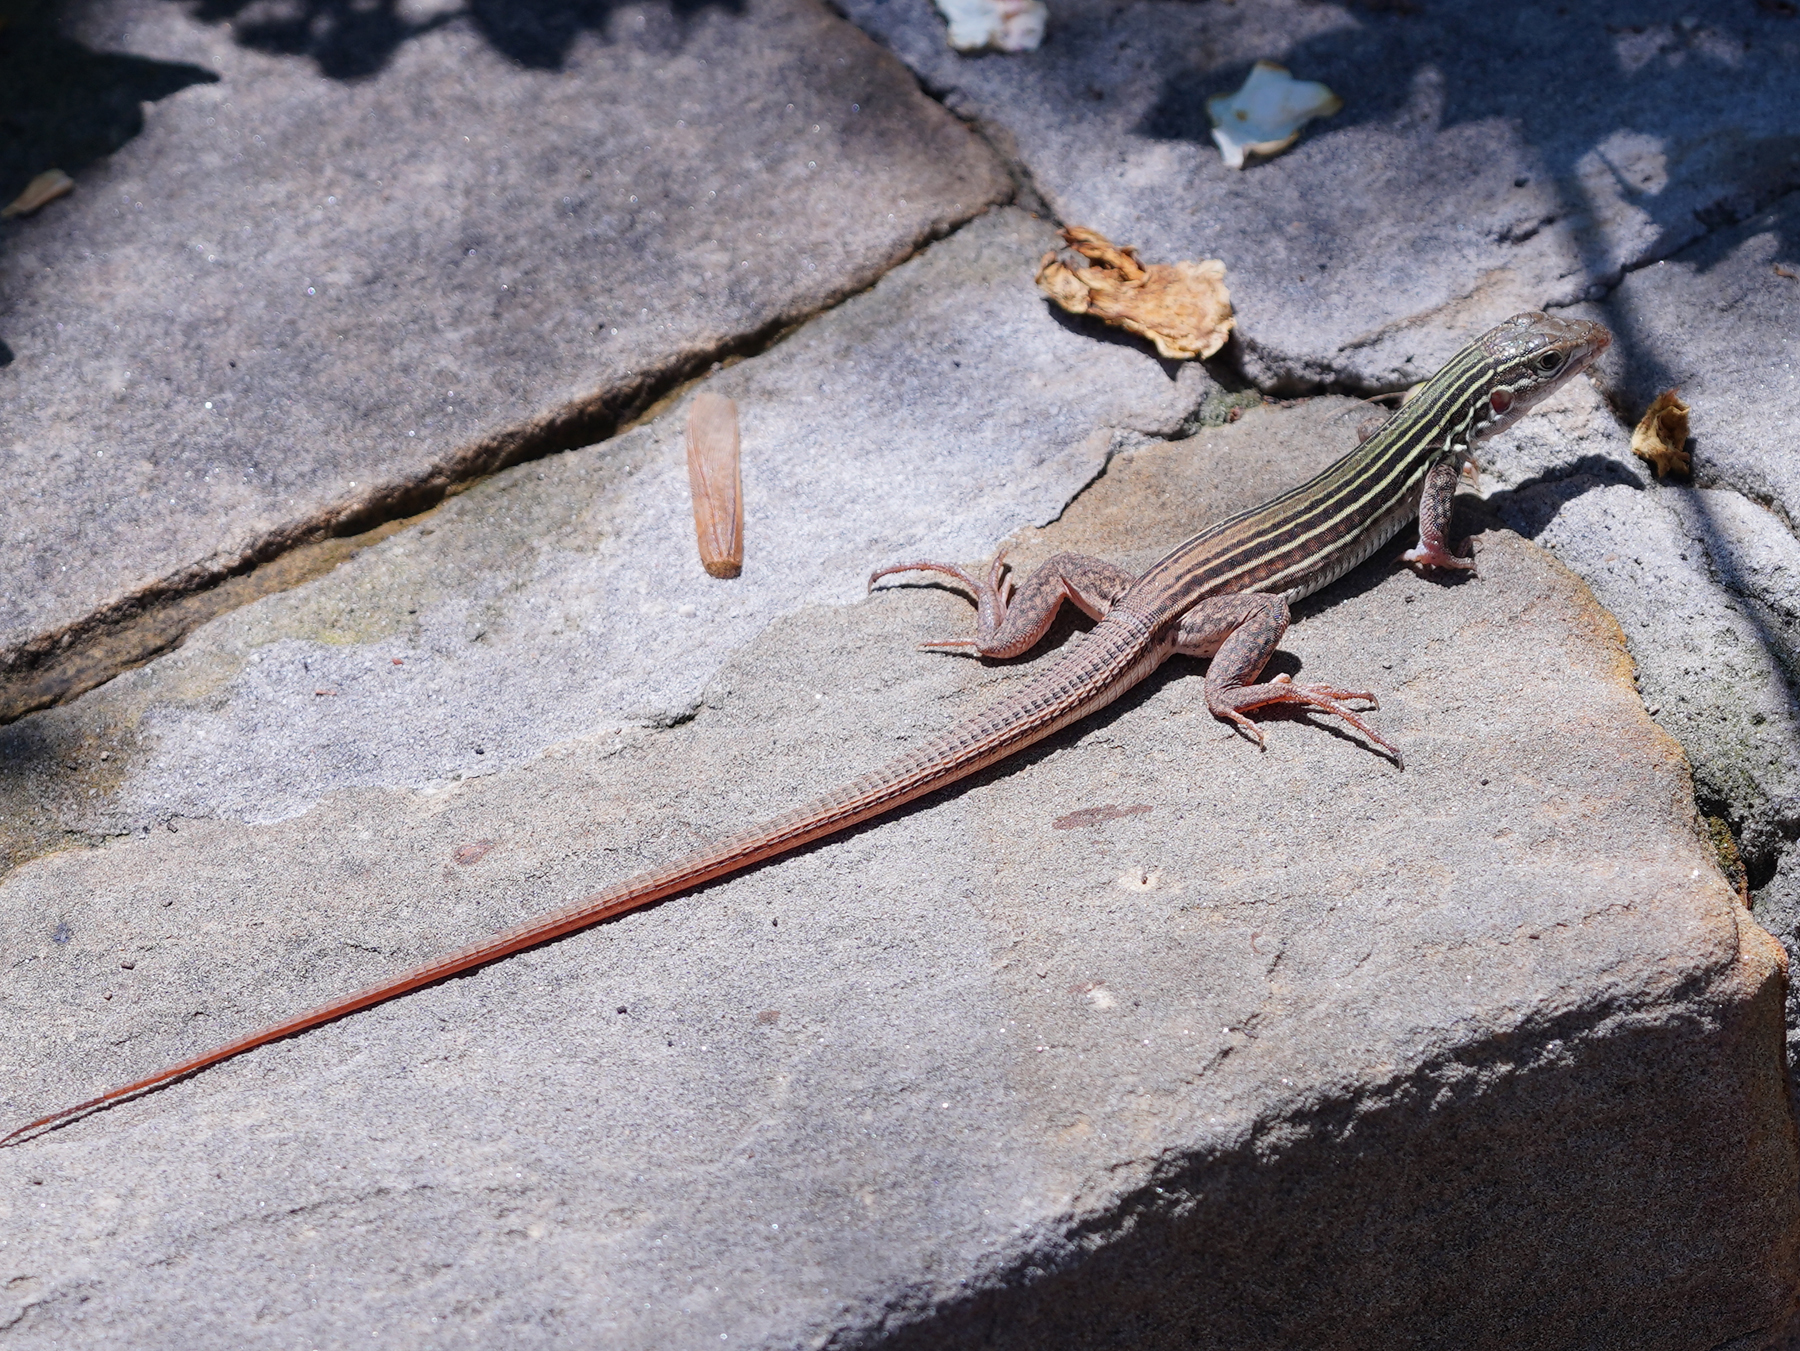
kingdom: Animalia
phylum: Chordata
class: Squamata
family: Teiidae
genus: Aspidoscelis
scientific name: Aspidoscelis gularis
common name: Eastern spotted whiptail
